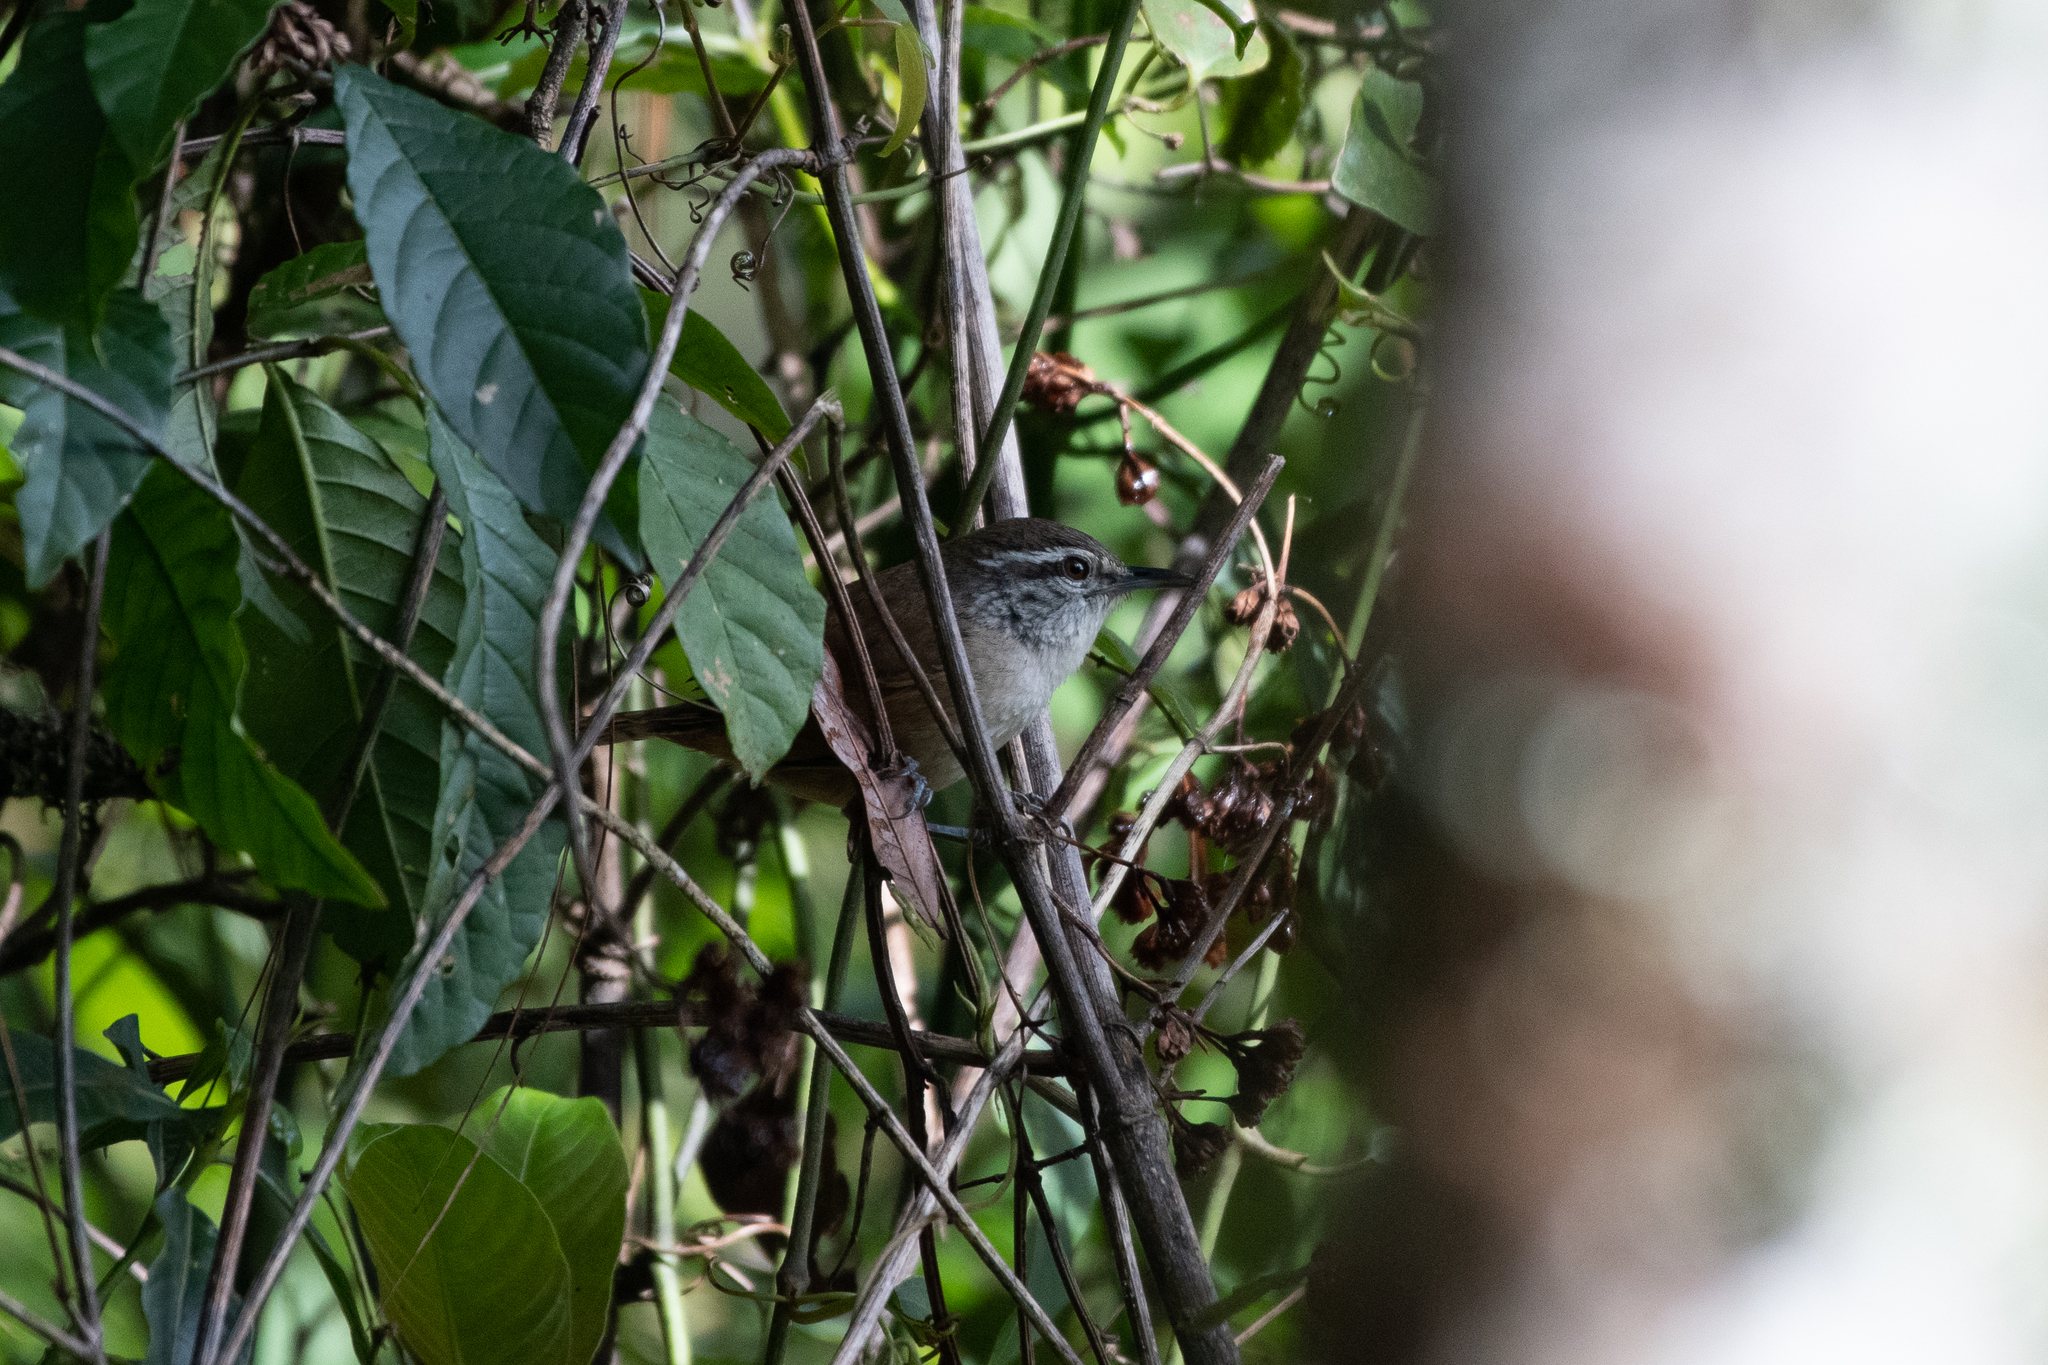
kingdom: Animalia
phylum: Chordata
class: Aves
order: Passeriformes
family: Troglodytidae
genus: Cantorchilus
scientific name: Cantorchilus modestus
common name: Cabanis's wren
